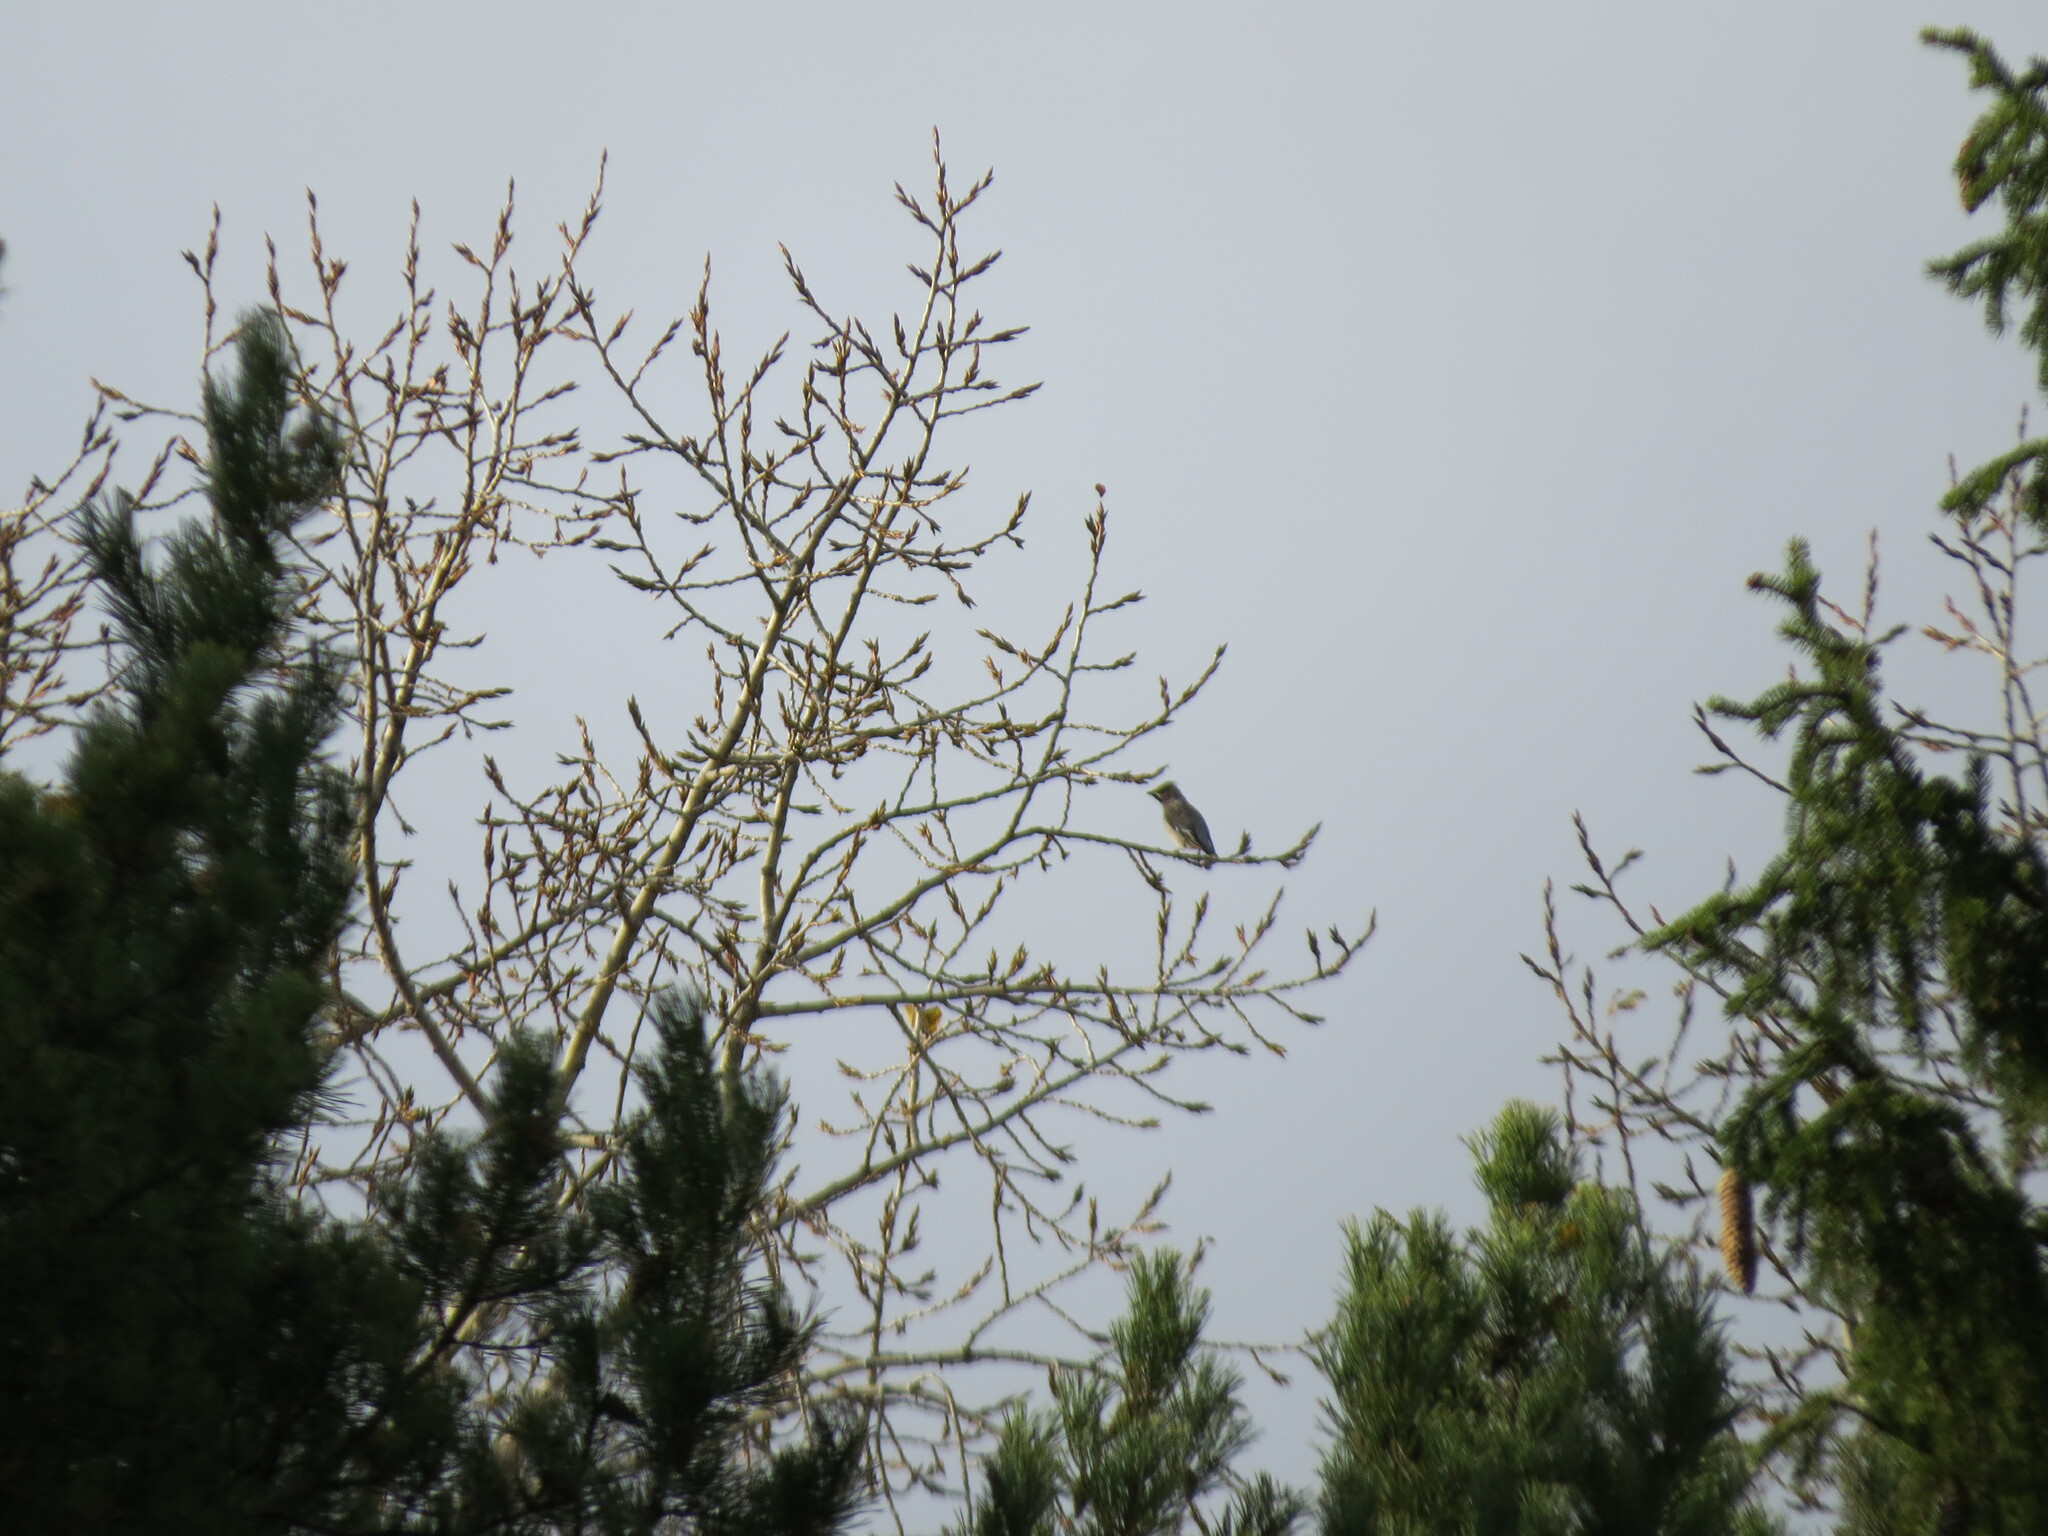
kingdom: Animalia
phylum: Chordata
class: Aves
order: Passeriformes
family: Bombycillidae
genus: Bombycilla
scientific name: Bombycilla garrulus
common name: Bohemian waxwing
